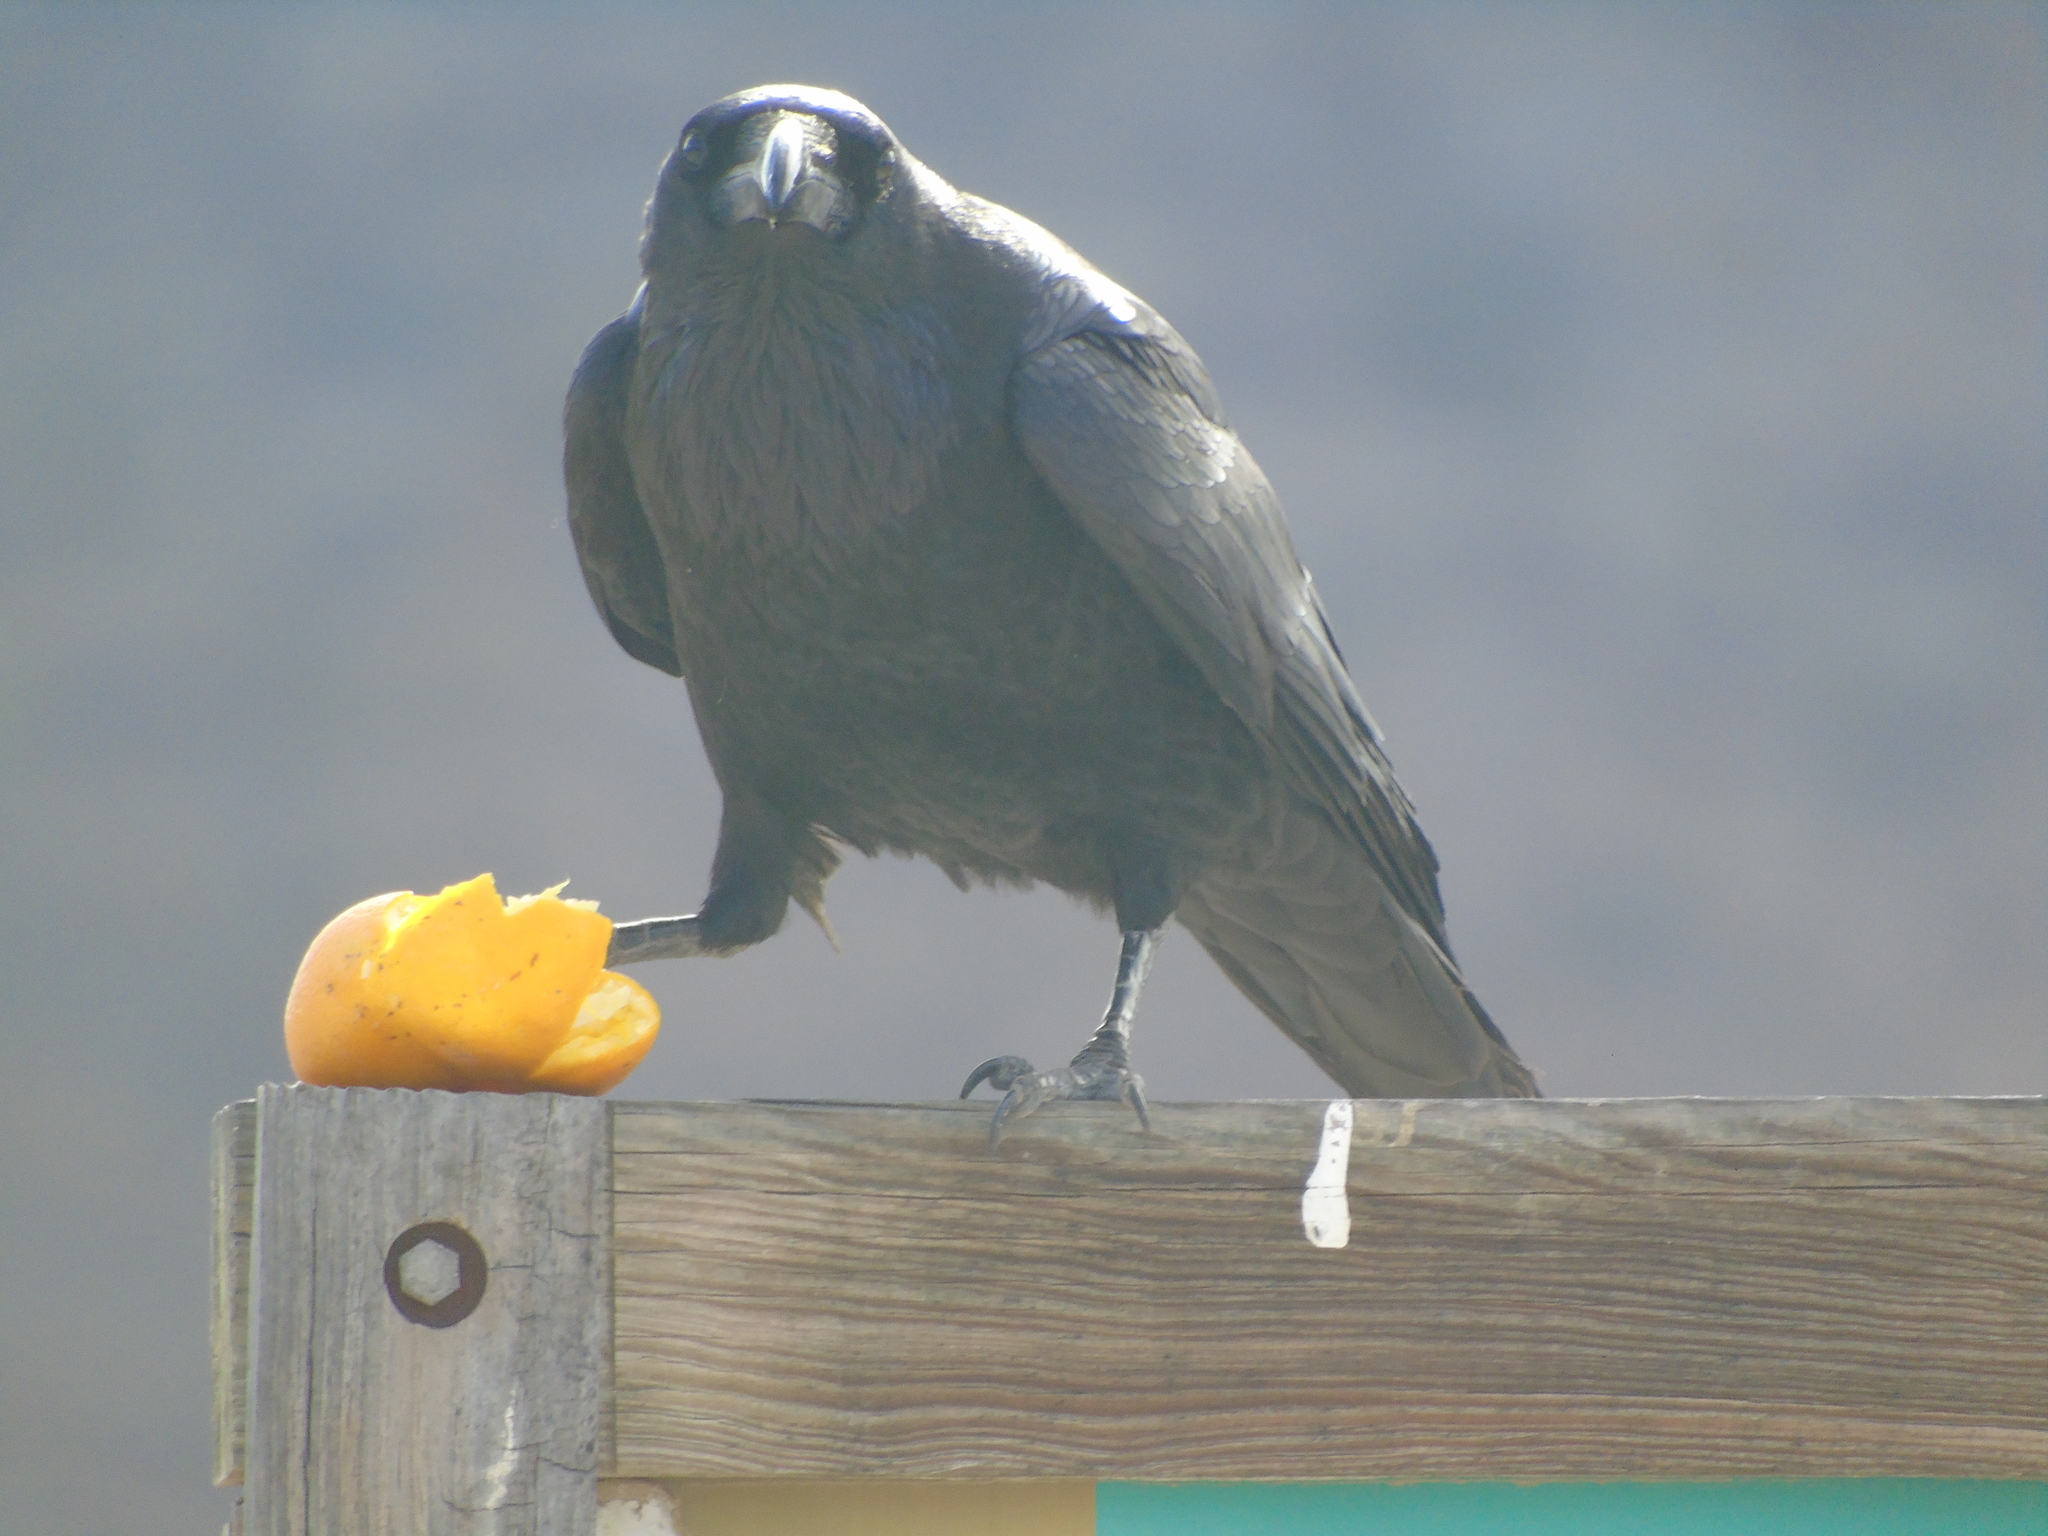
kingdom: Animalia
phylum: Chordata
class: Aves
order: Passeriformes
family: Corvidae
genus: Corvus
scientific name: Corvus corax
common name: Common raven
